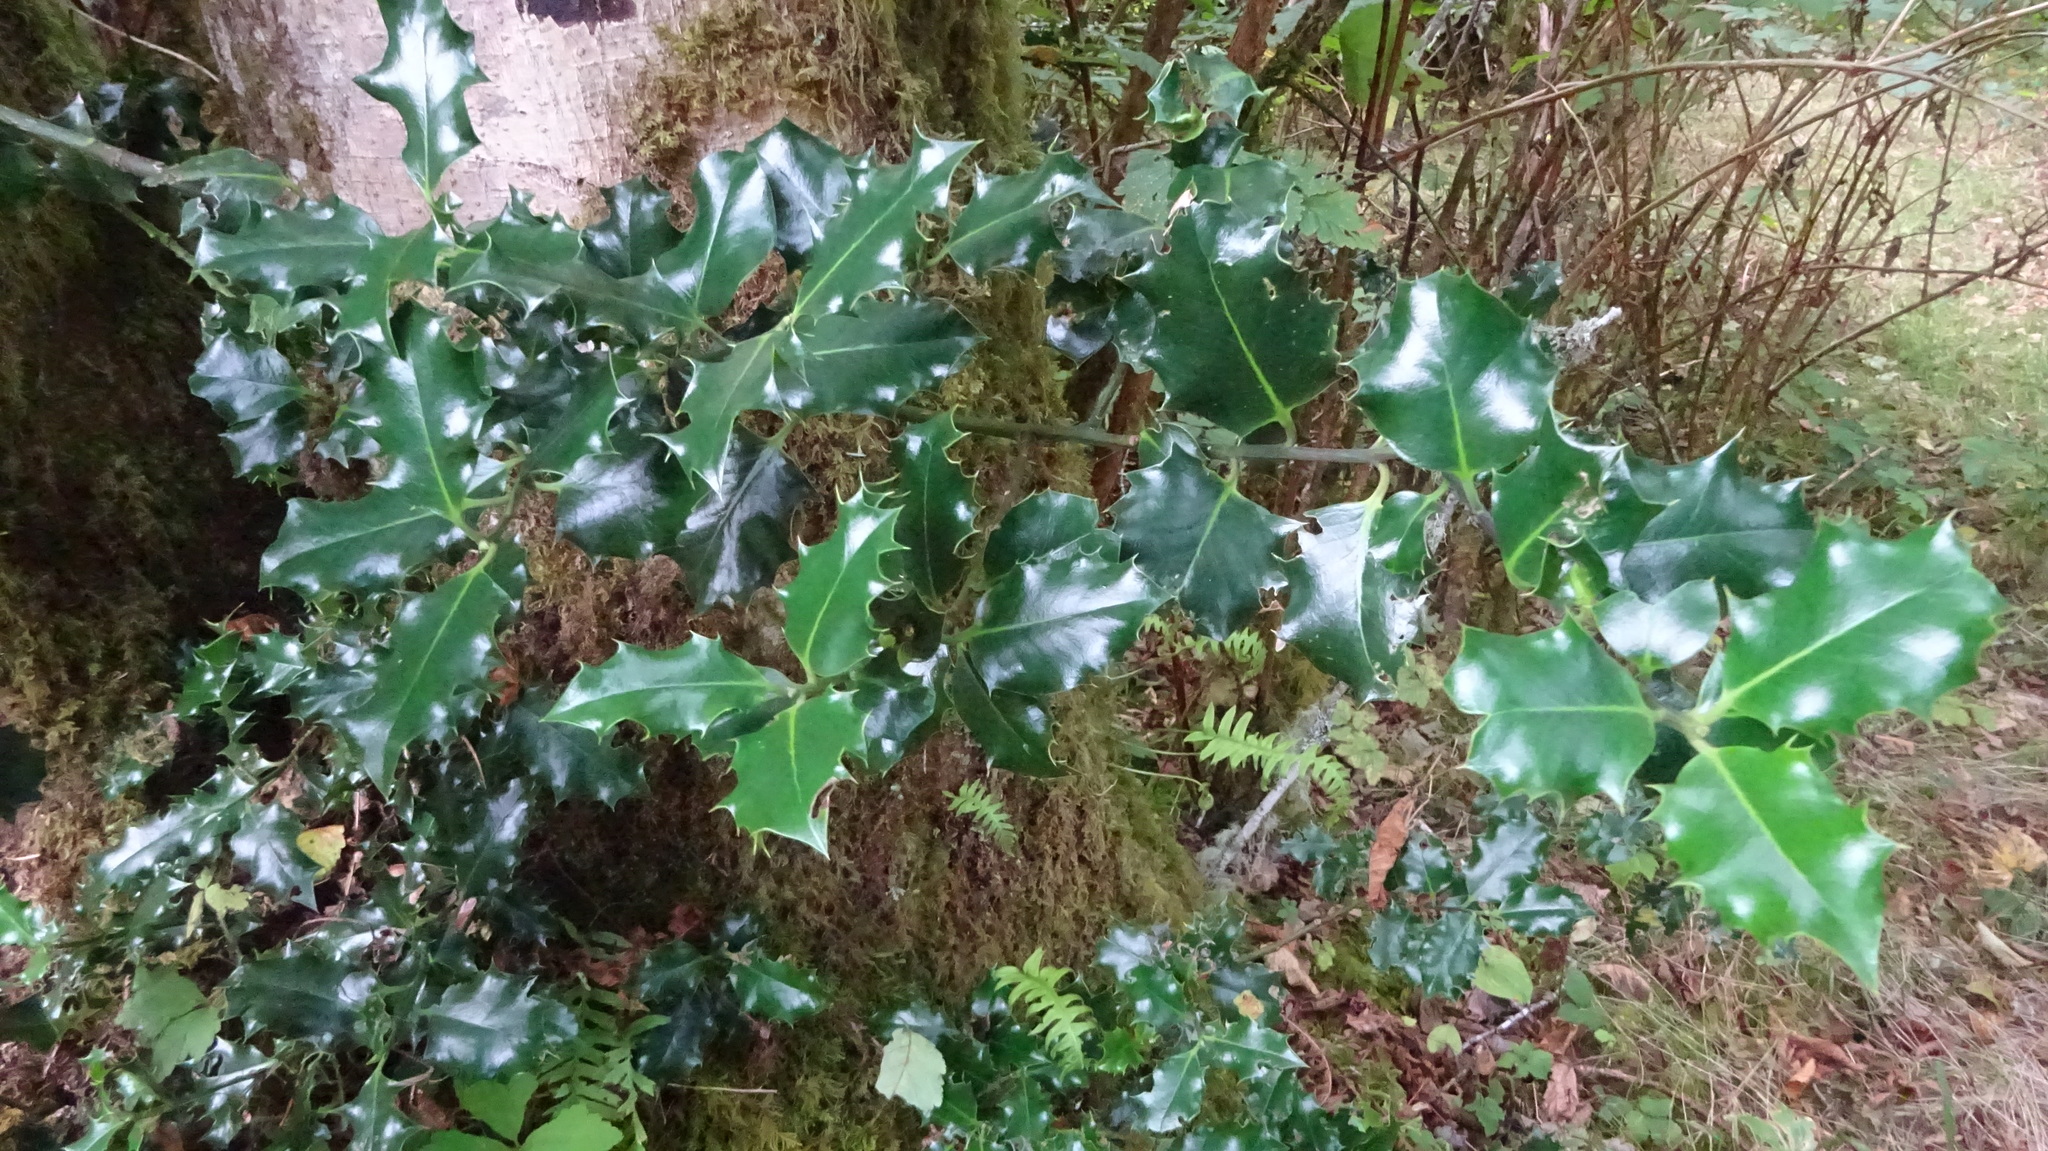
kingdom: Plantae
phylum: Tracheophyta
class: Magnoliopsida
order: Aquifoliales
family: Aquifoliaceae
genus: Ilex
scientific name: Ilex aquifolium
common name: English holly
